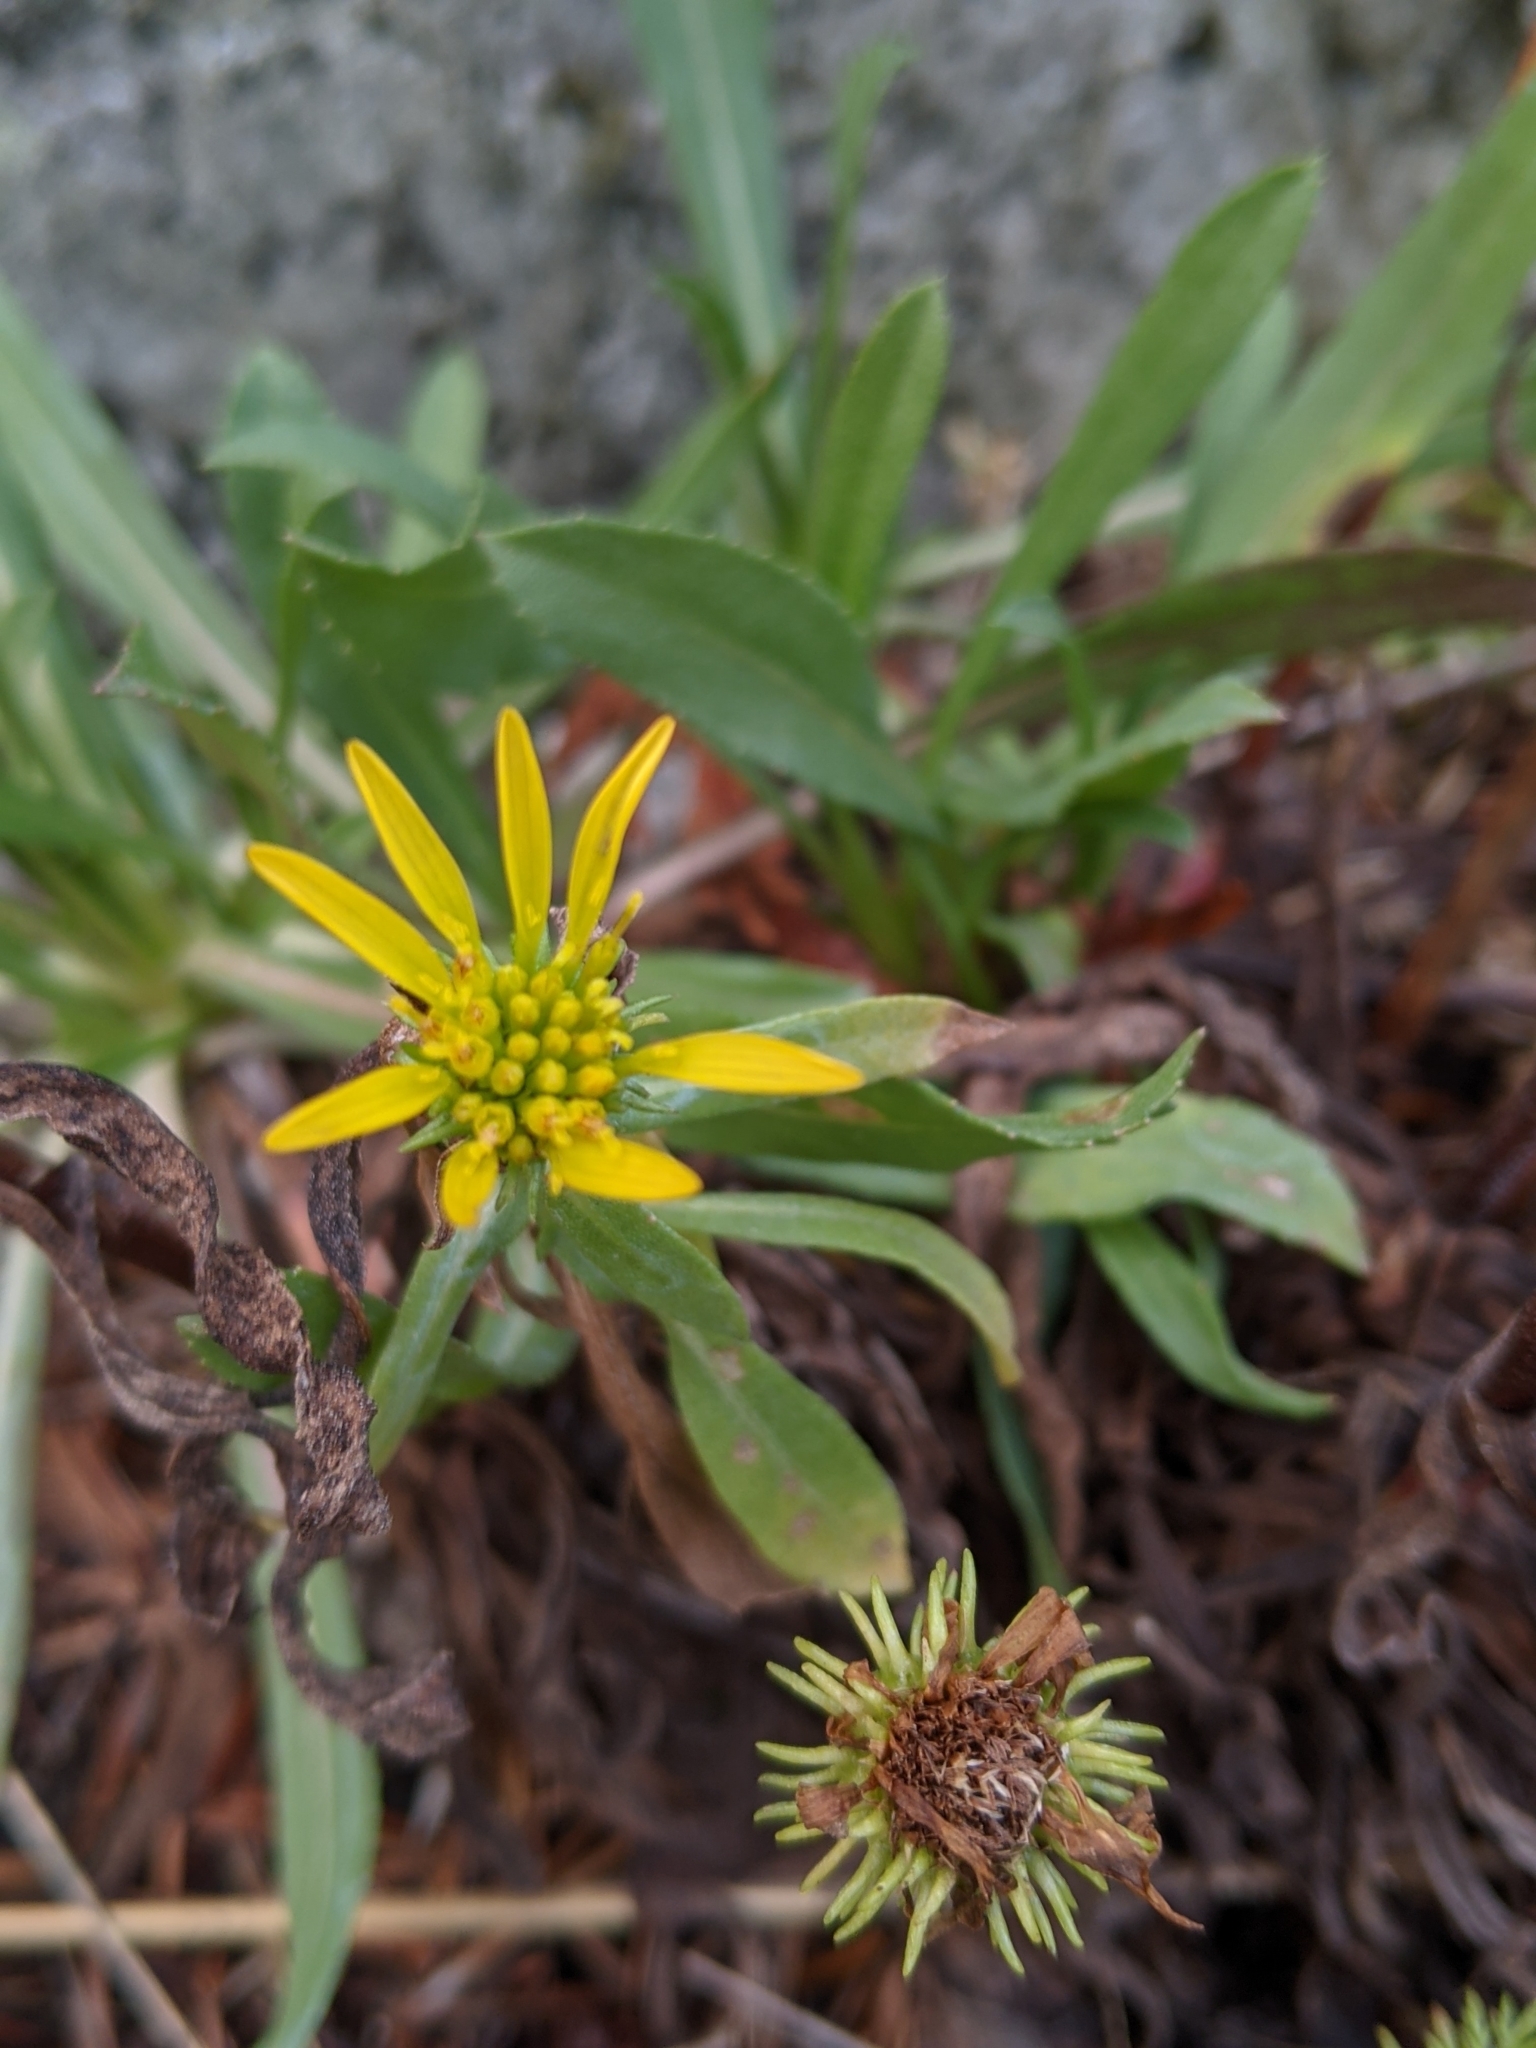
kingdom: Plantae
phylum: Tracheophyta
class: Magnoliopsida
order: Asterales
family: Asteraceae
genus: Grindelia
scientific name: Grindelia hirsutula
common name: Hairy gumweed
